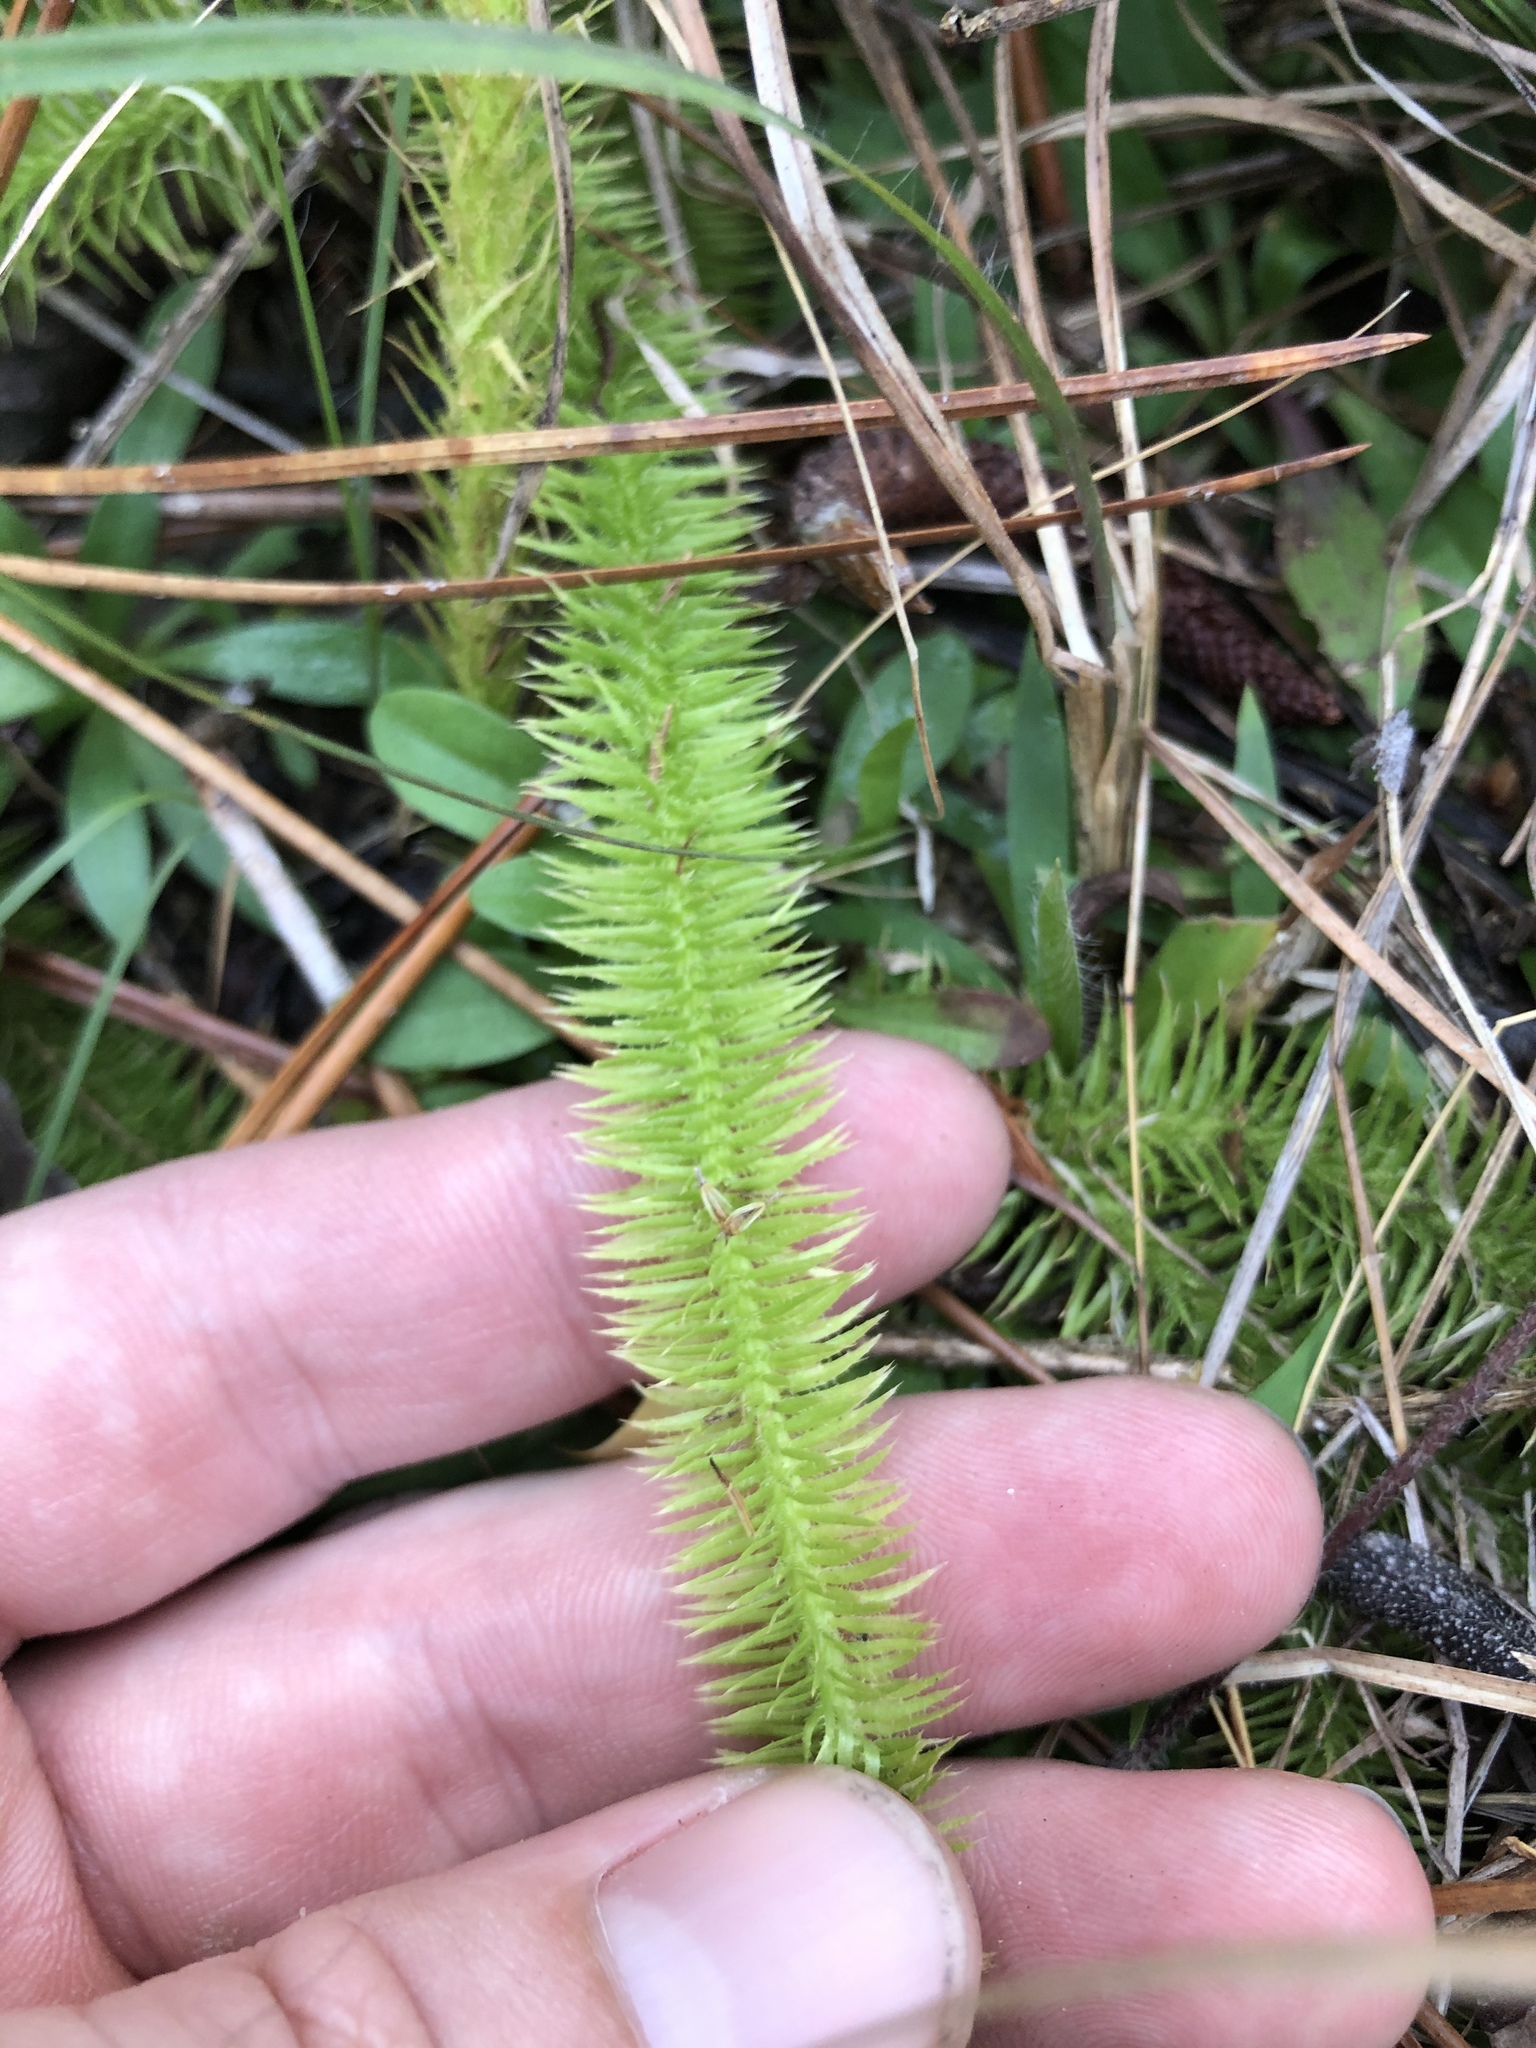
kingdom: Plantae
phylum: Tracheophyta
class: Lycopodiopsida
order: Lycopodiales
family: Lycopodiaceae
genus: Lycopodiella
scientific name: Lycopodiella prostrata
